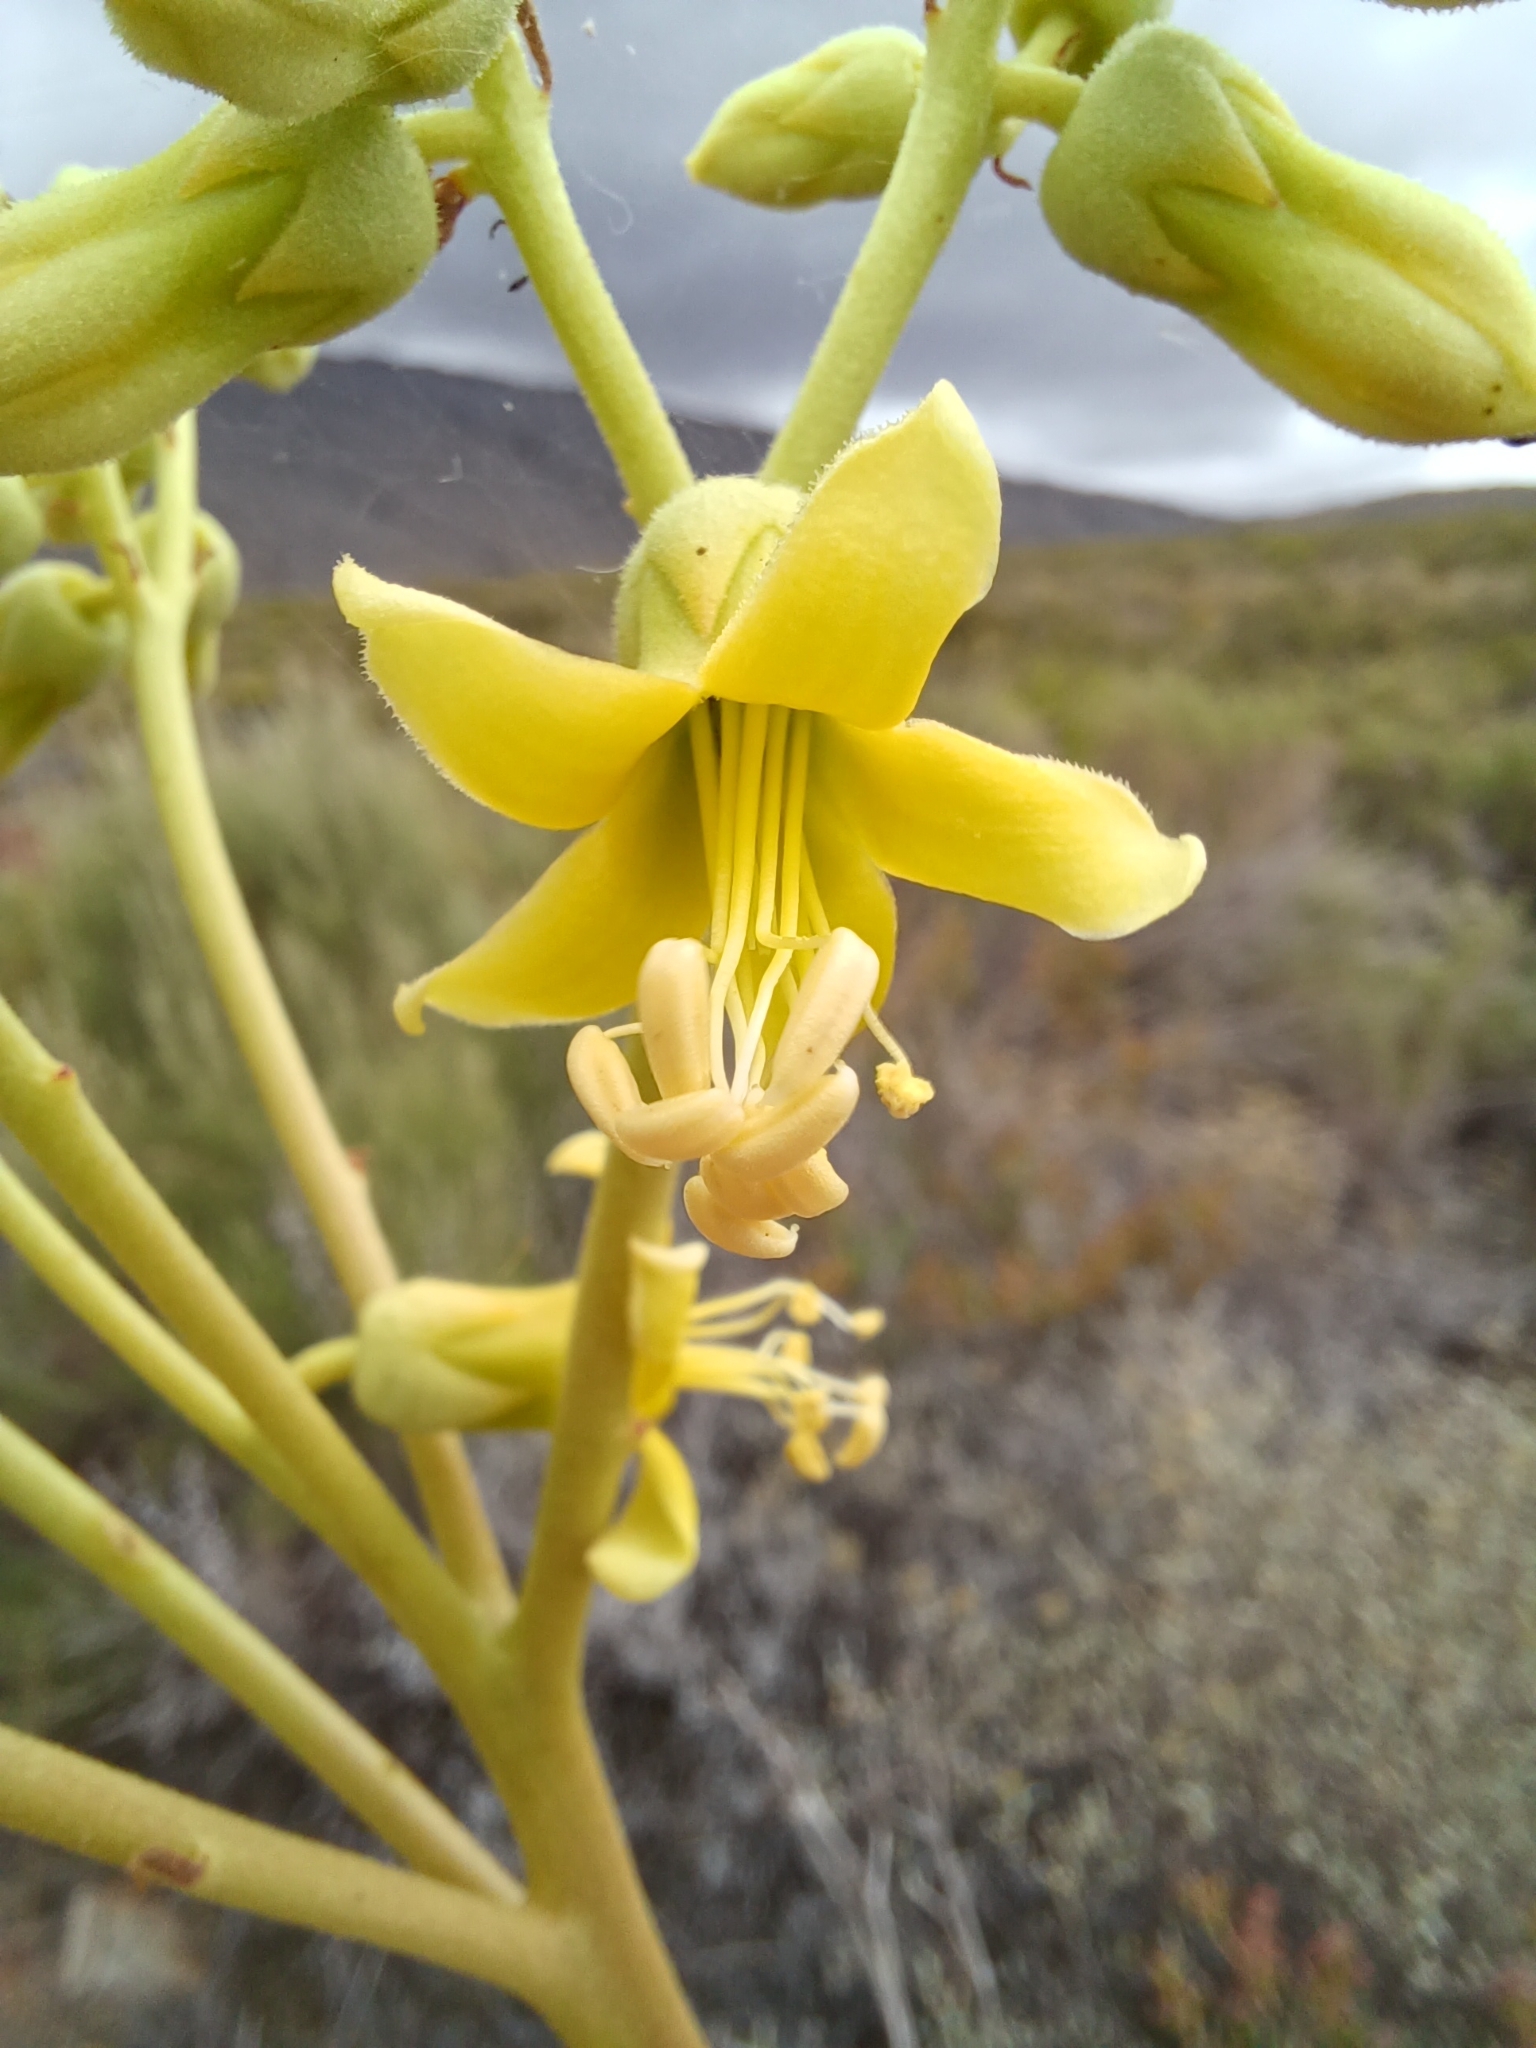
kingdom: Plantae
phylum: Tracheophyta
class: Magnoliopsida
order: Saxifragales
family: Crassulaceae
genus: Tylecodon
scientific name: Tylecodon wallichii
